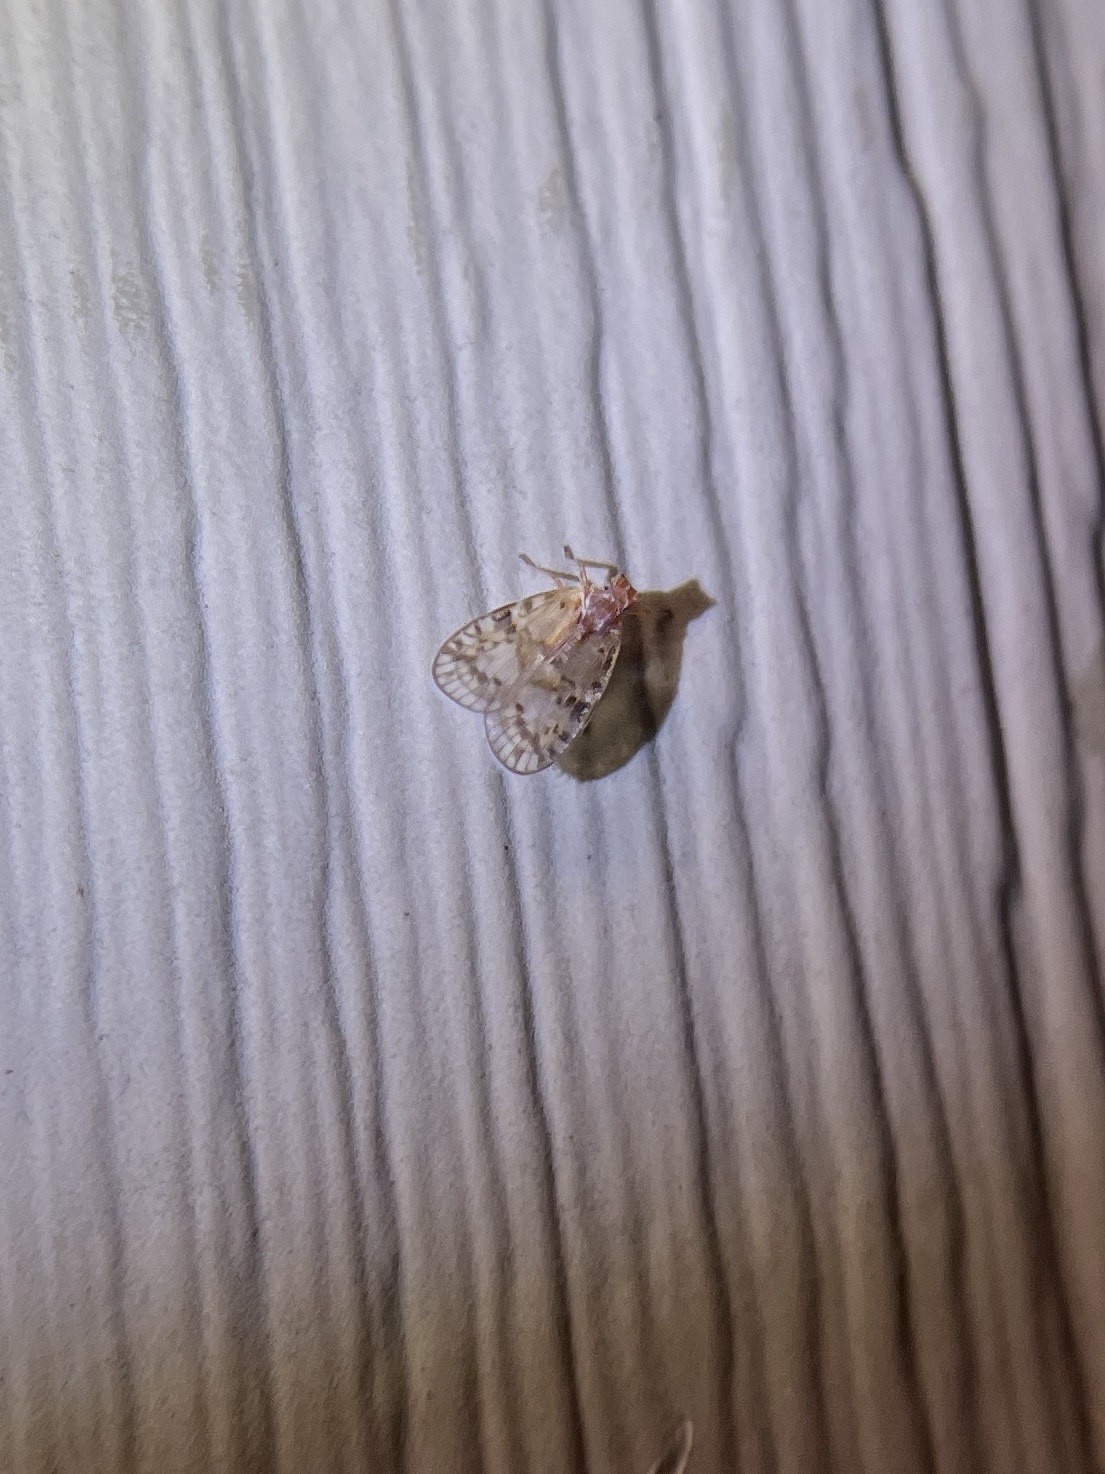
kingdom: Animalia
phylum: Arthropoda
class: Insecta
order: Hemiptera
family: Cixiidae
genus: Bothriocera
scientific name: Bothriocera drakei
